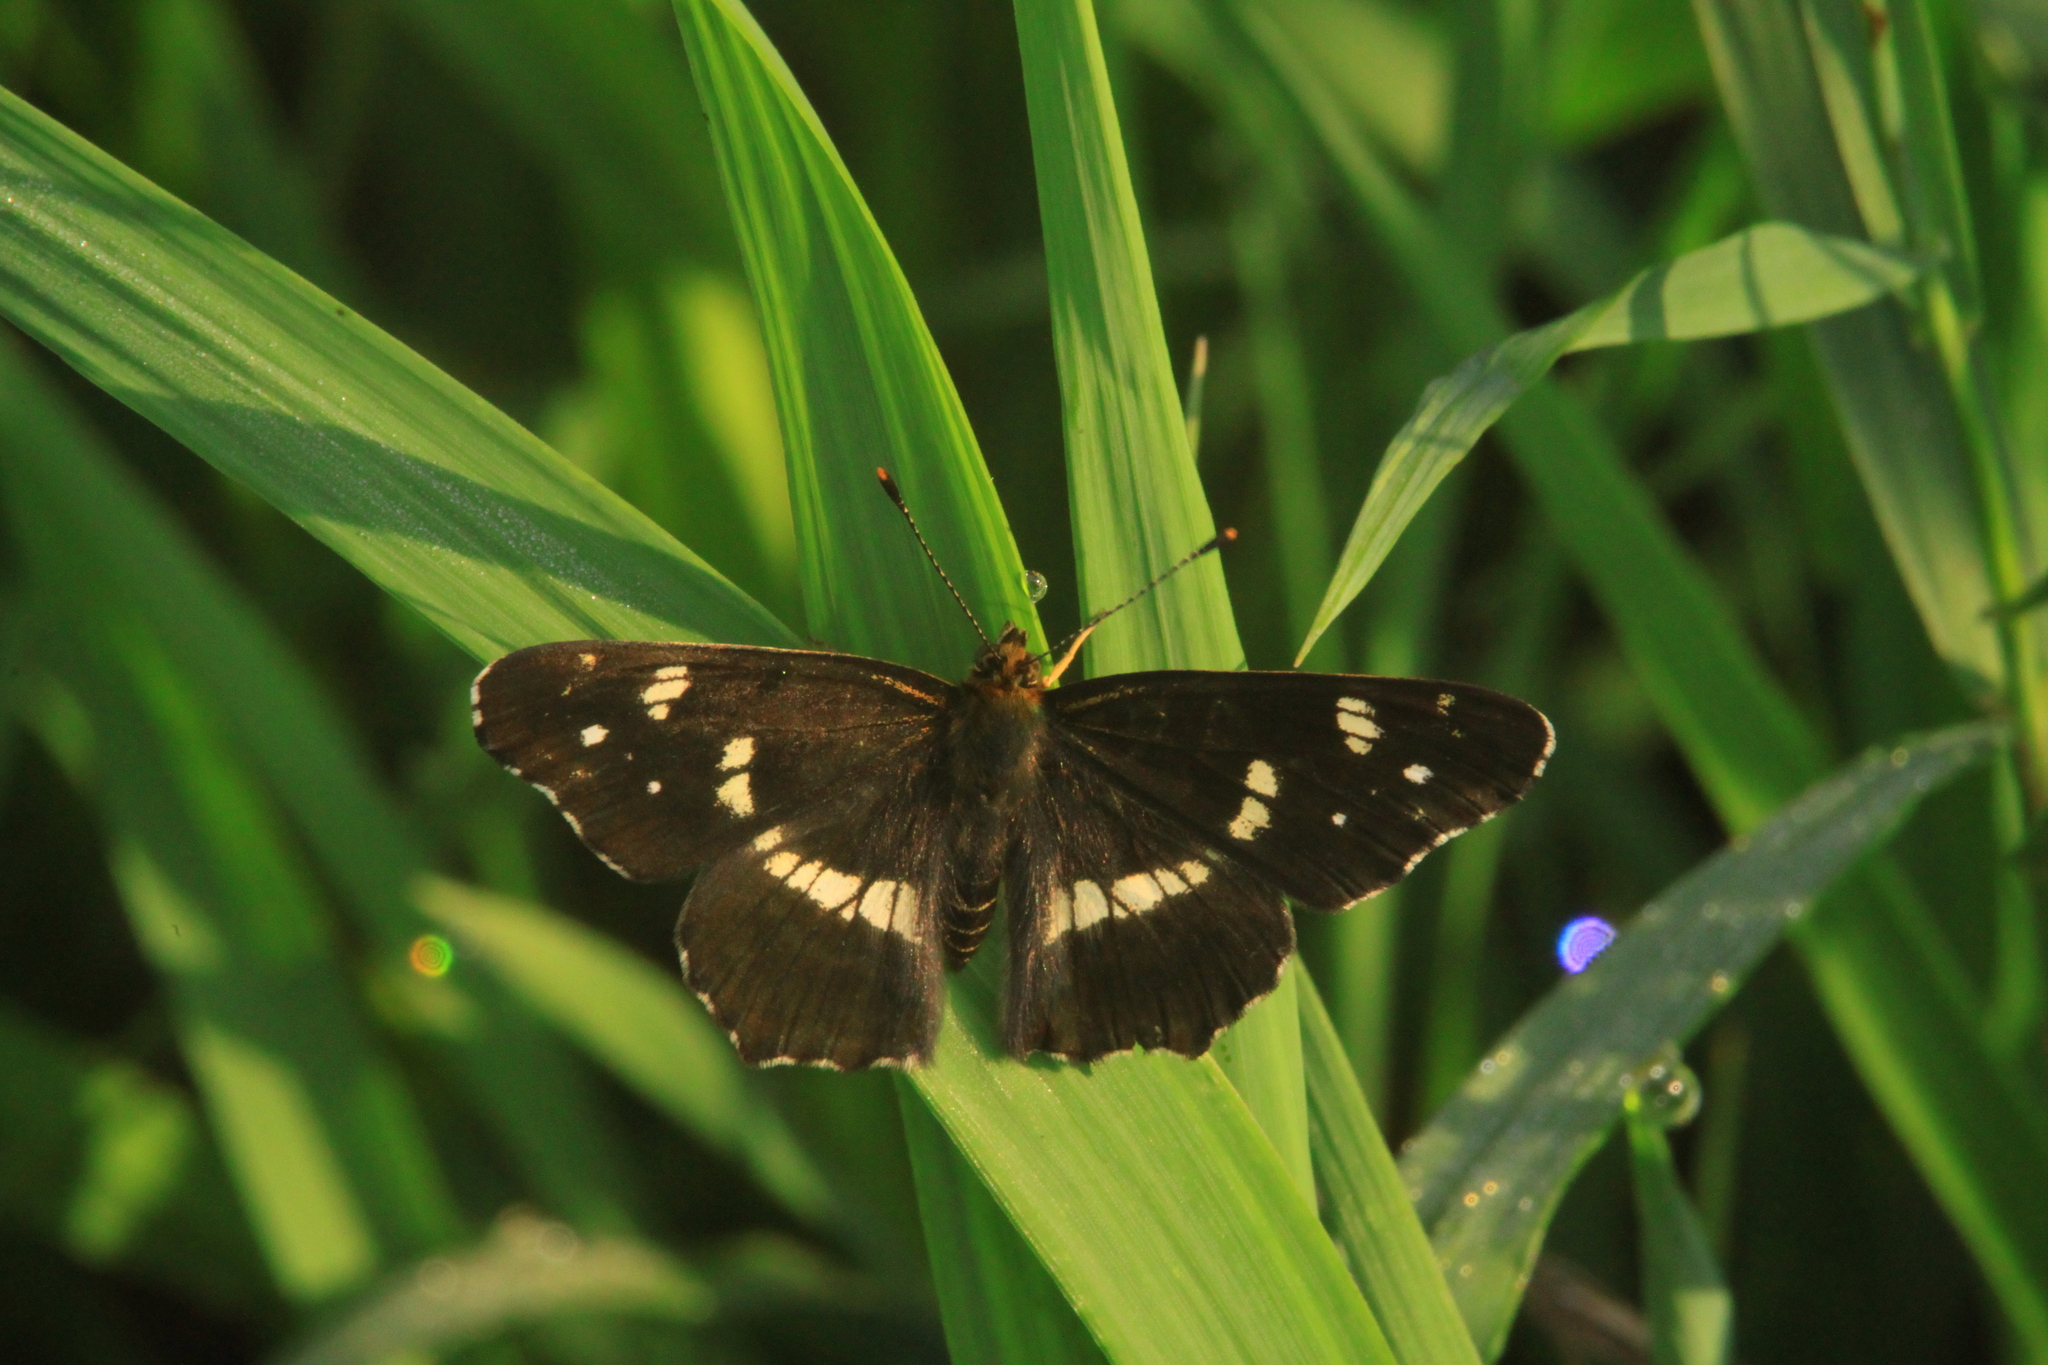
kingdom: Animalia
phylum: Arthropoda
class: Insecta
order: Lepidoptera
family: Nymphalidae
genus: Araschnia
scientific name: Araschnia levana
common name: Map butterfly
